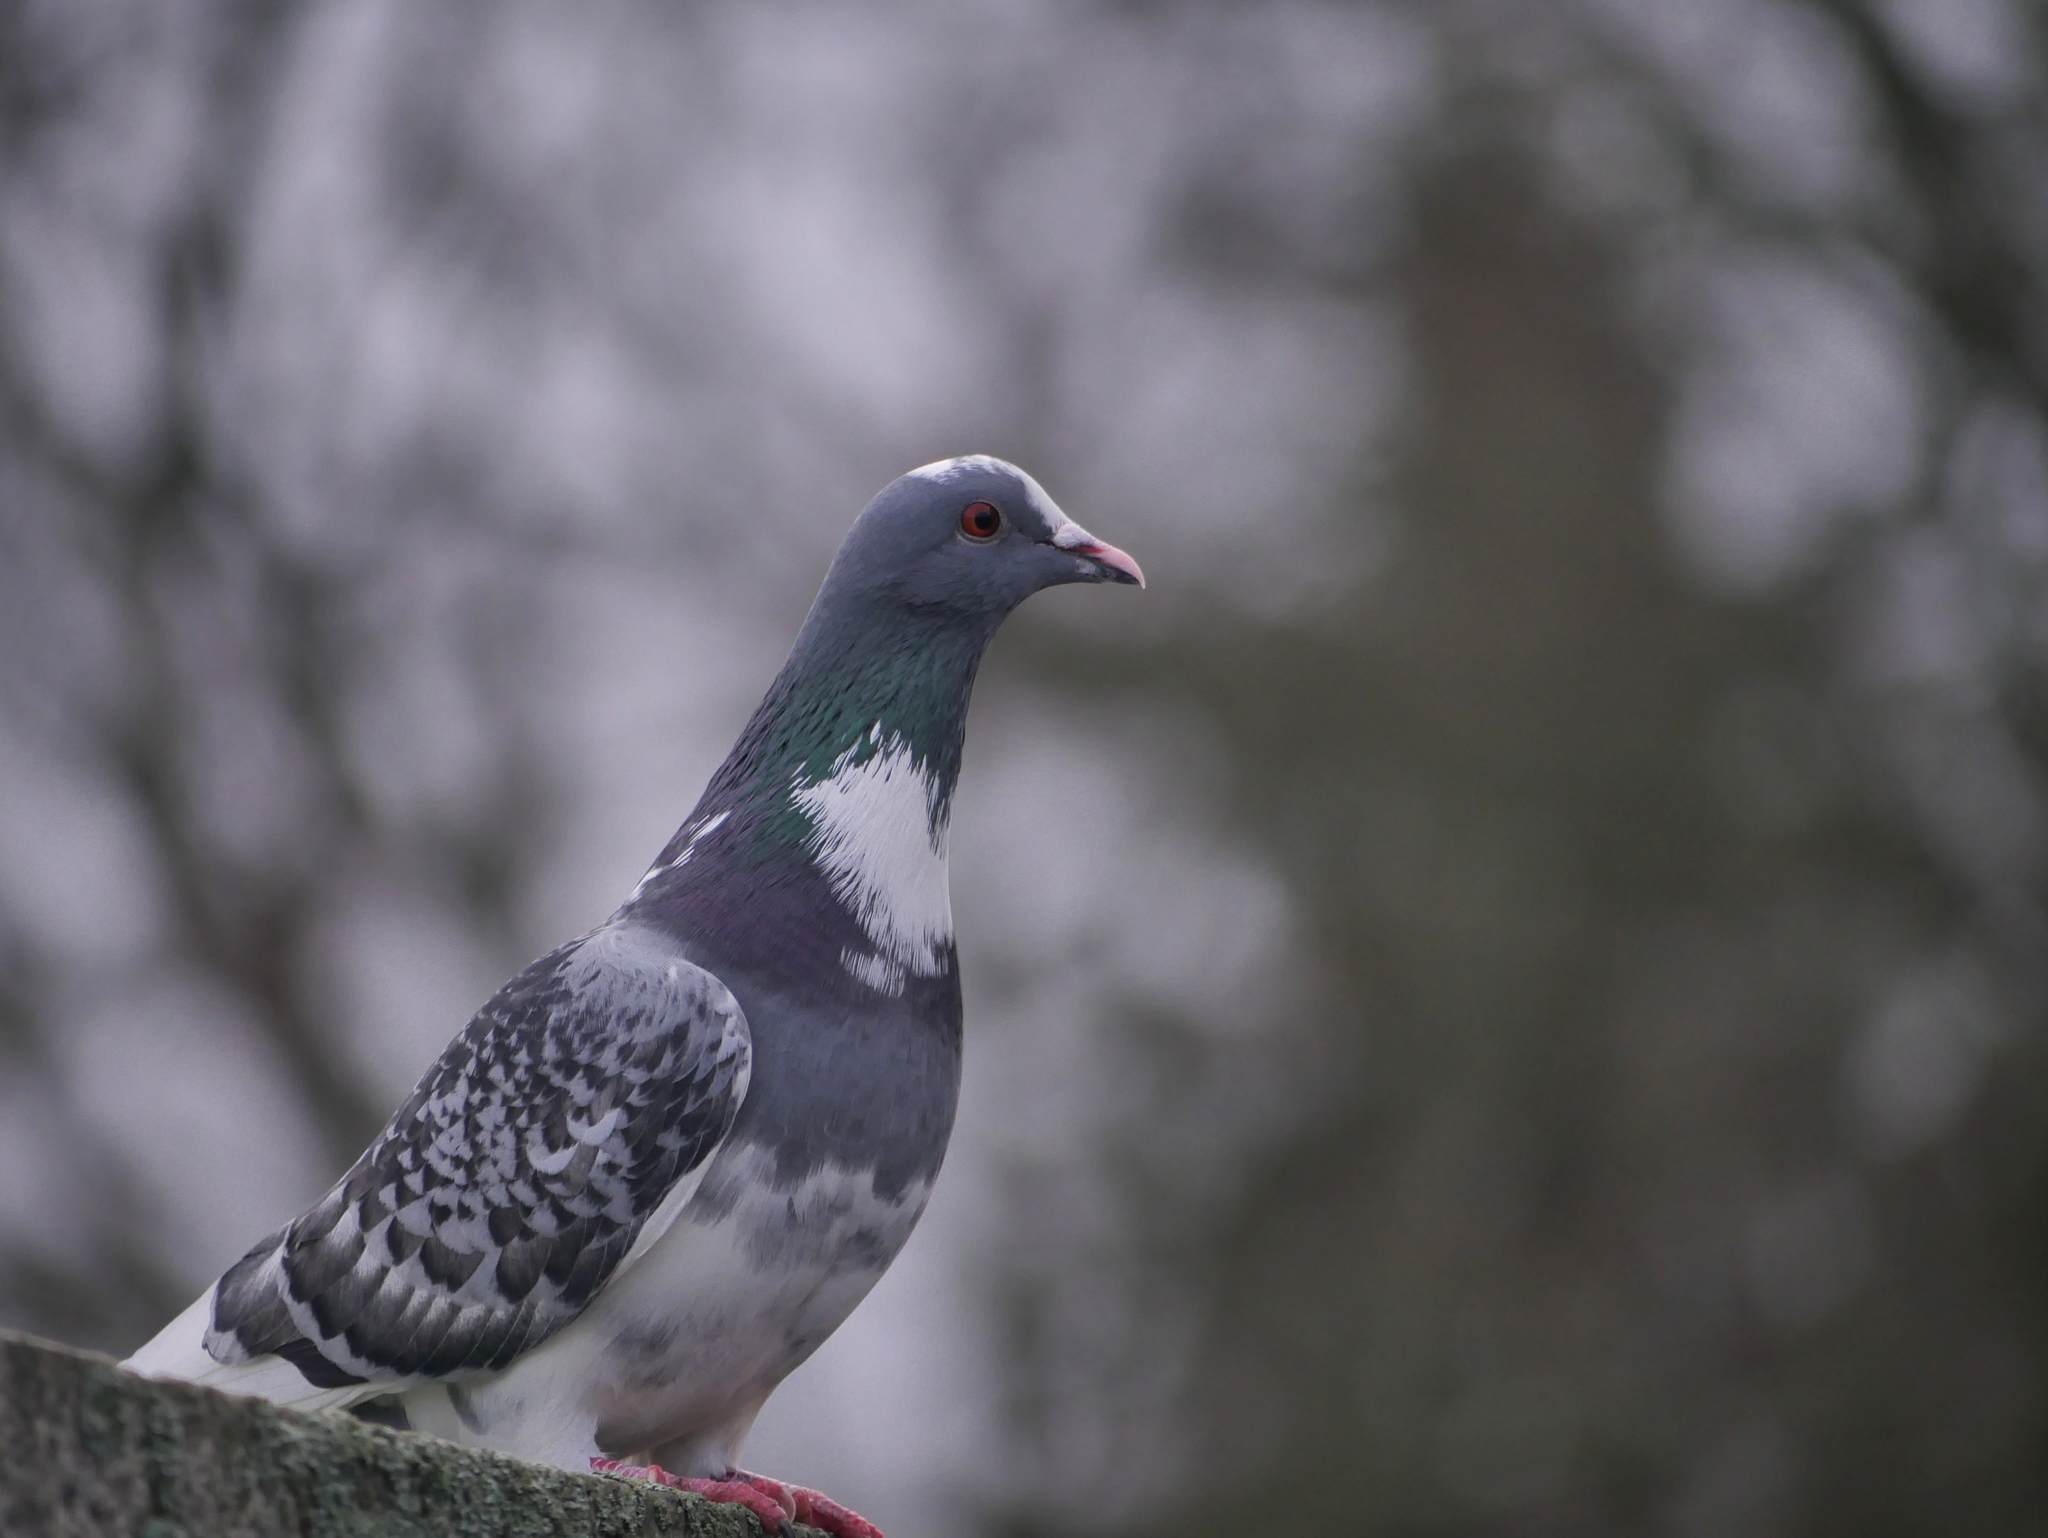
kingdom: Animalia
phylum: Chordata
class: Aves
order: Columbiformes
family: Columbidae
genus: Columba
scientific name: Columba livia
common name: Rock pigeon
